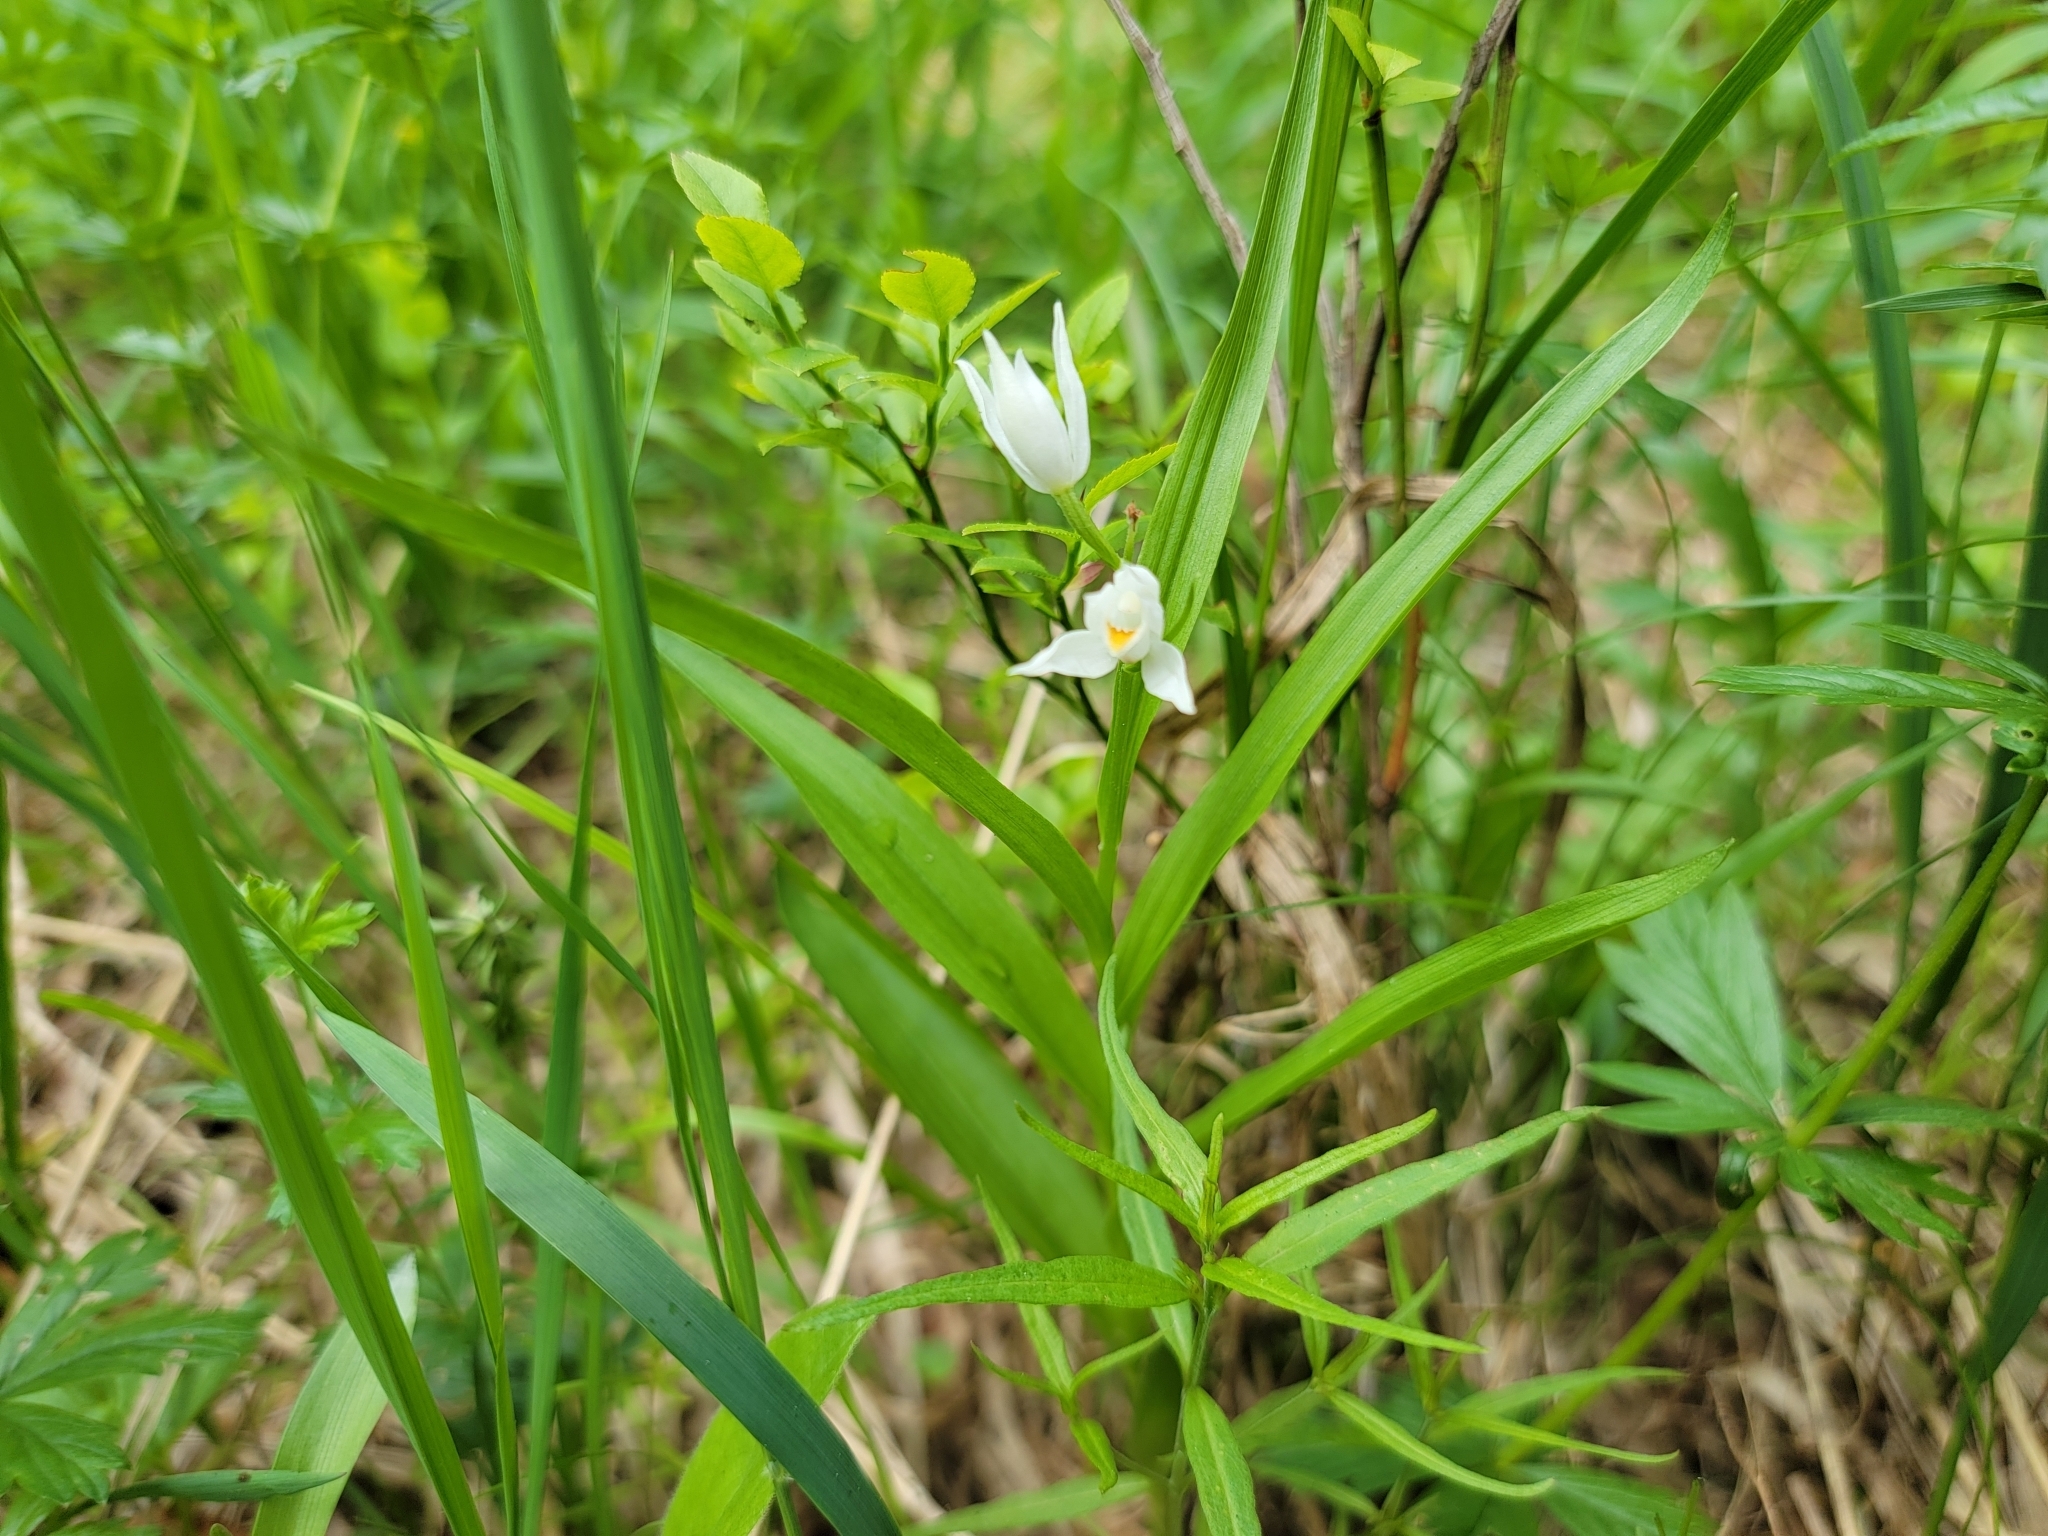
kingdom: Plantae
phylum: Tracheophyta
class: Liliopsida
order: Asparagales
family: Orchidaceae
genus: Cephalanthera
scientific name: Cephalanthera longifolia
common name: Narrow-leaved helleborine
